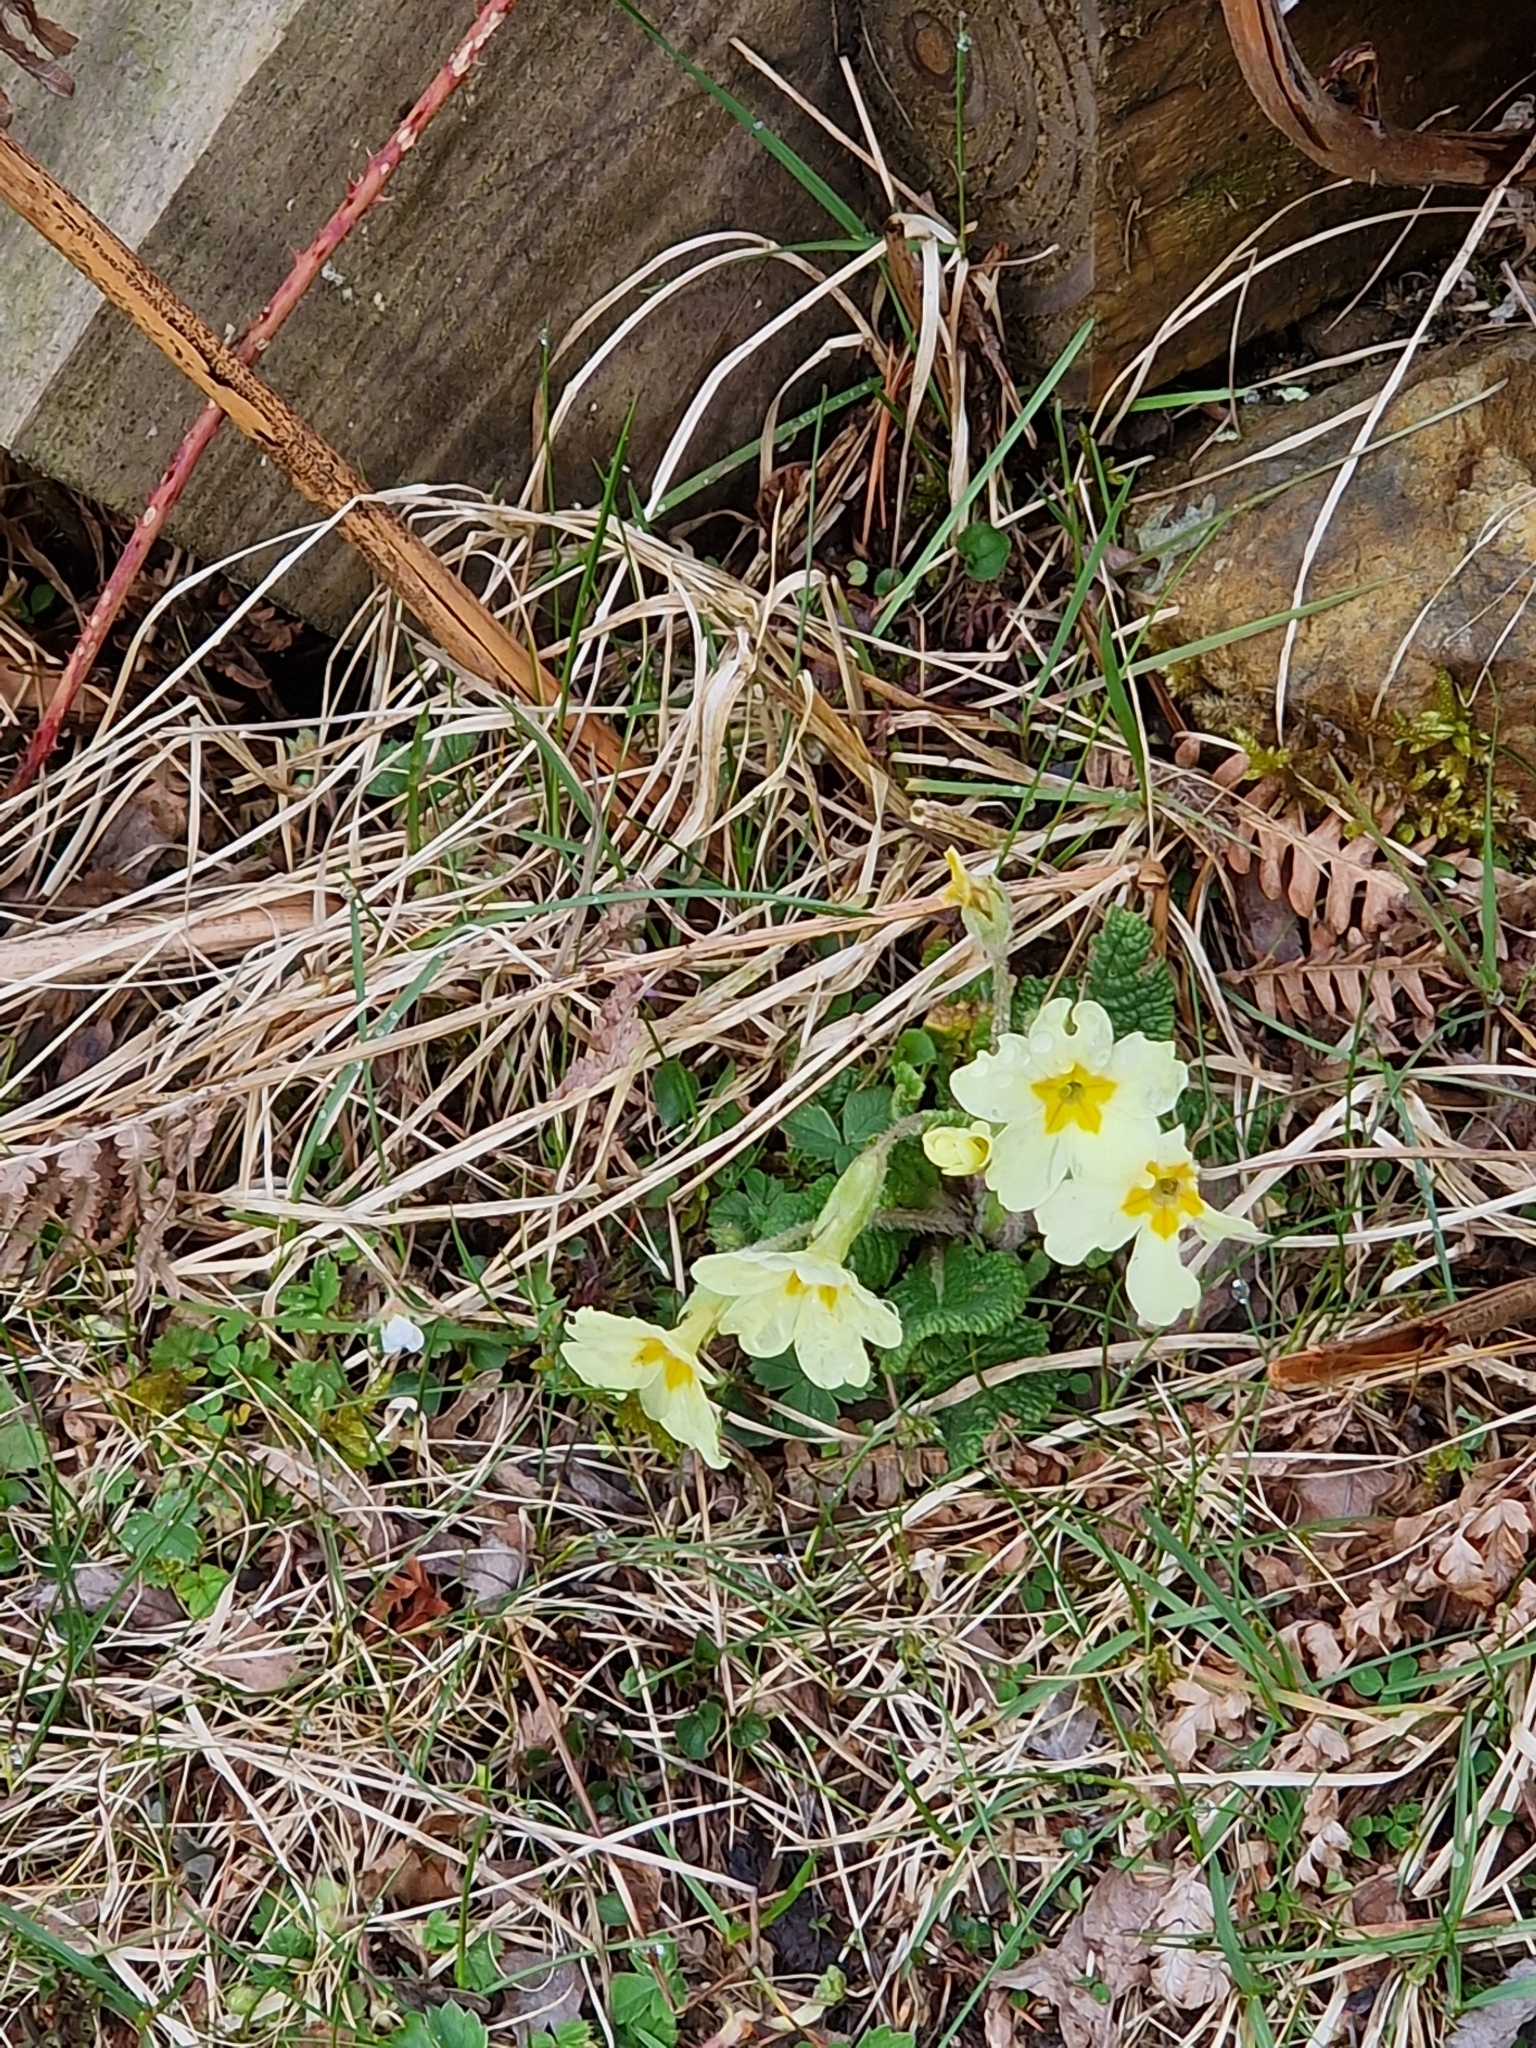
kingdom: Plantae
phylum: Tracheophyta
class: Magnoliopsida
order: Ericales
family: Primulaceae
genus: Primula
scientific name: Primula vulgaris
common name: Primrose
